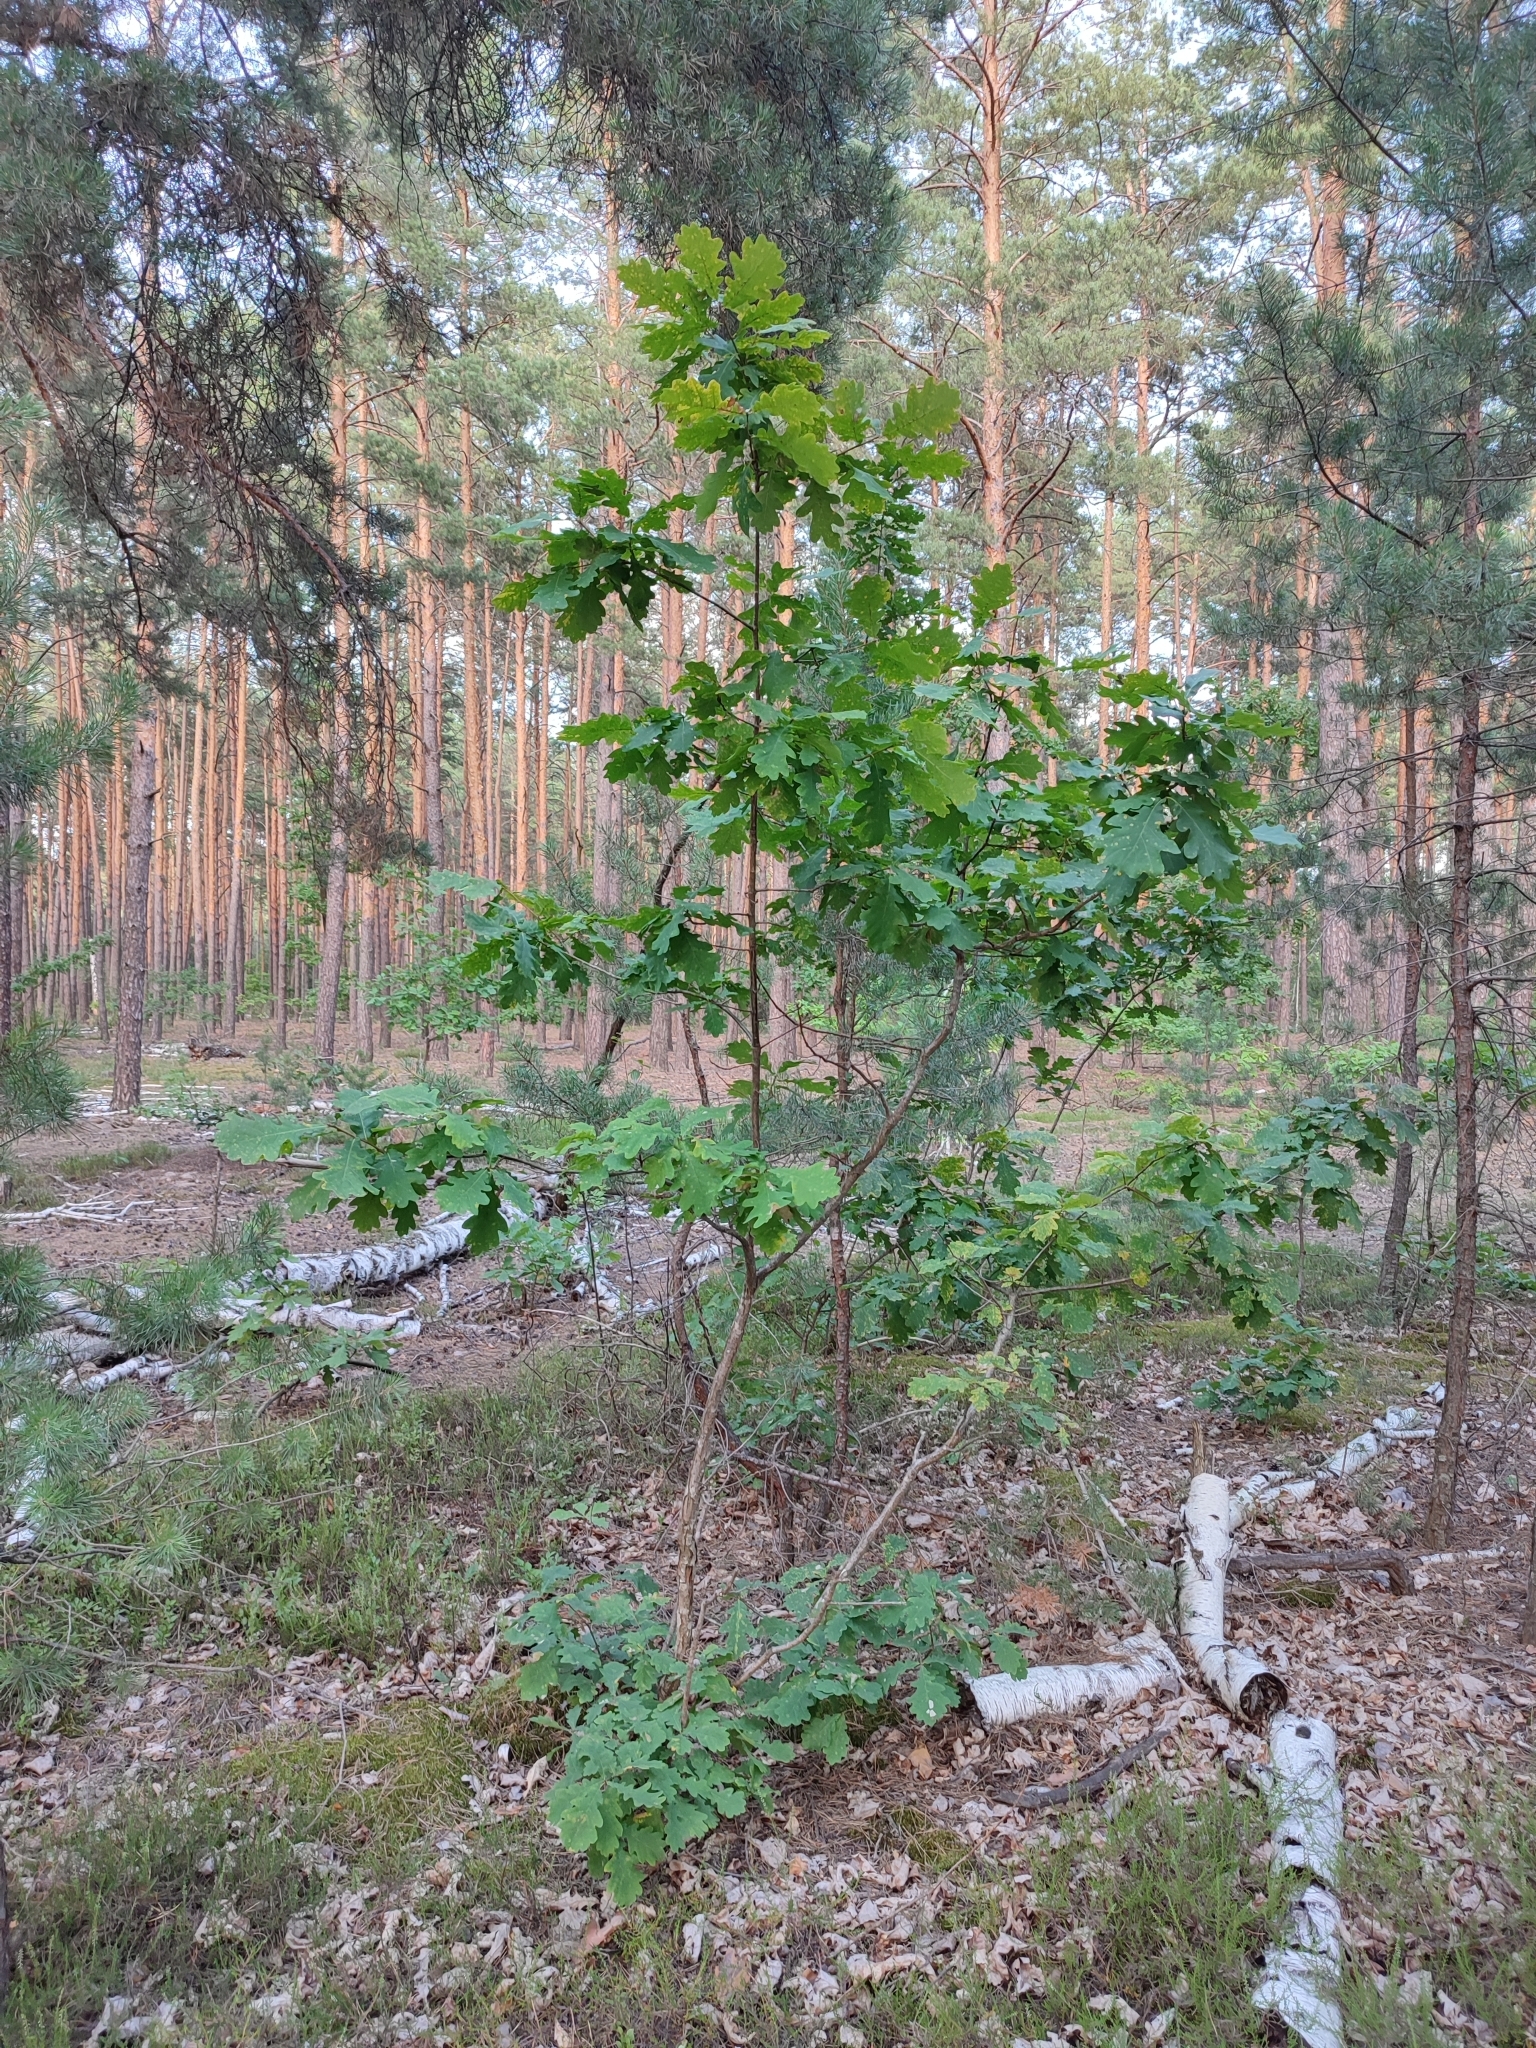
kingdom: Plantae
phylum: Tracheophyta
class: Magnoliopsida
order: Fagales
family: Fagaceae
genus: Quercus
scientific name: Quercus robur
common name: Pedunculate oak
